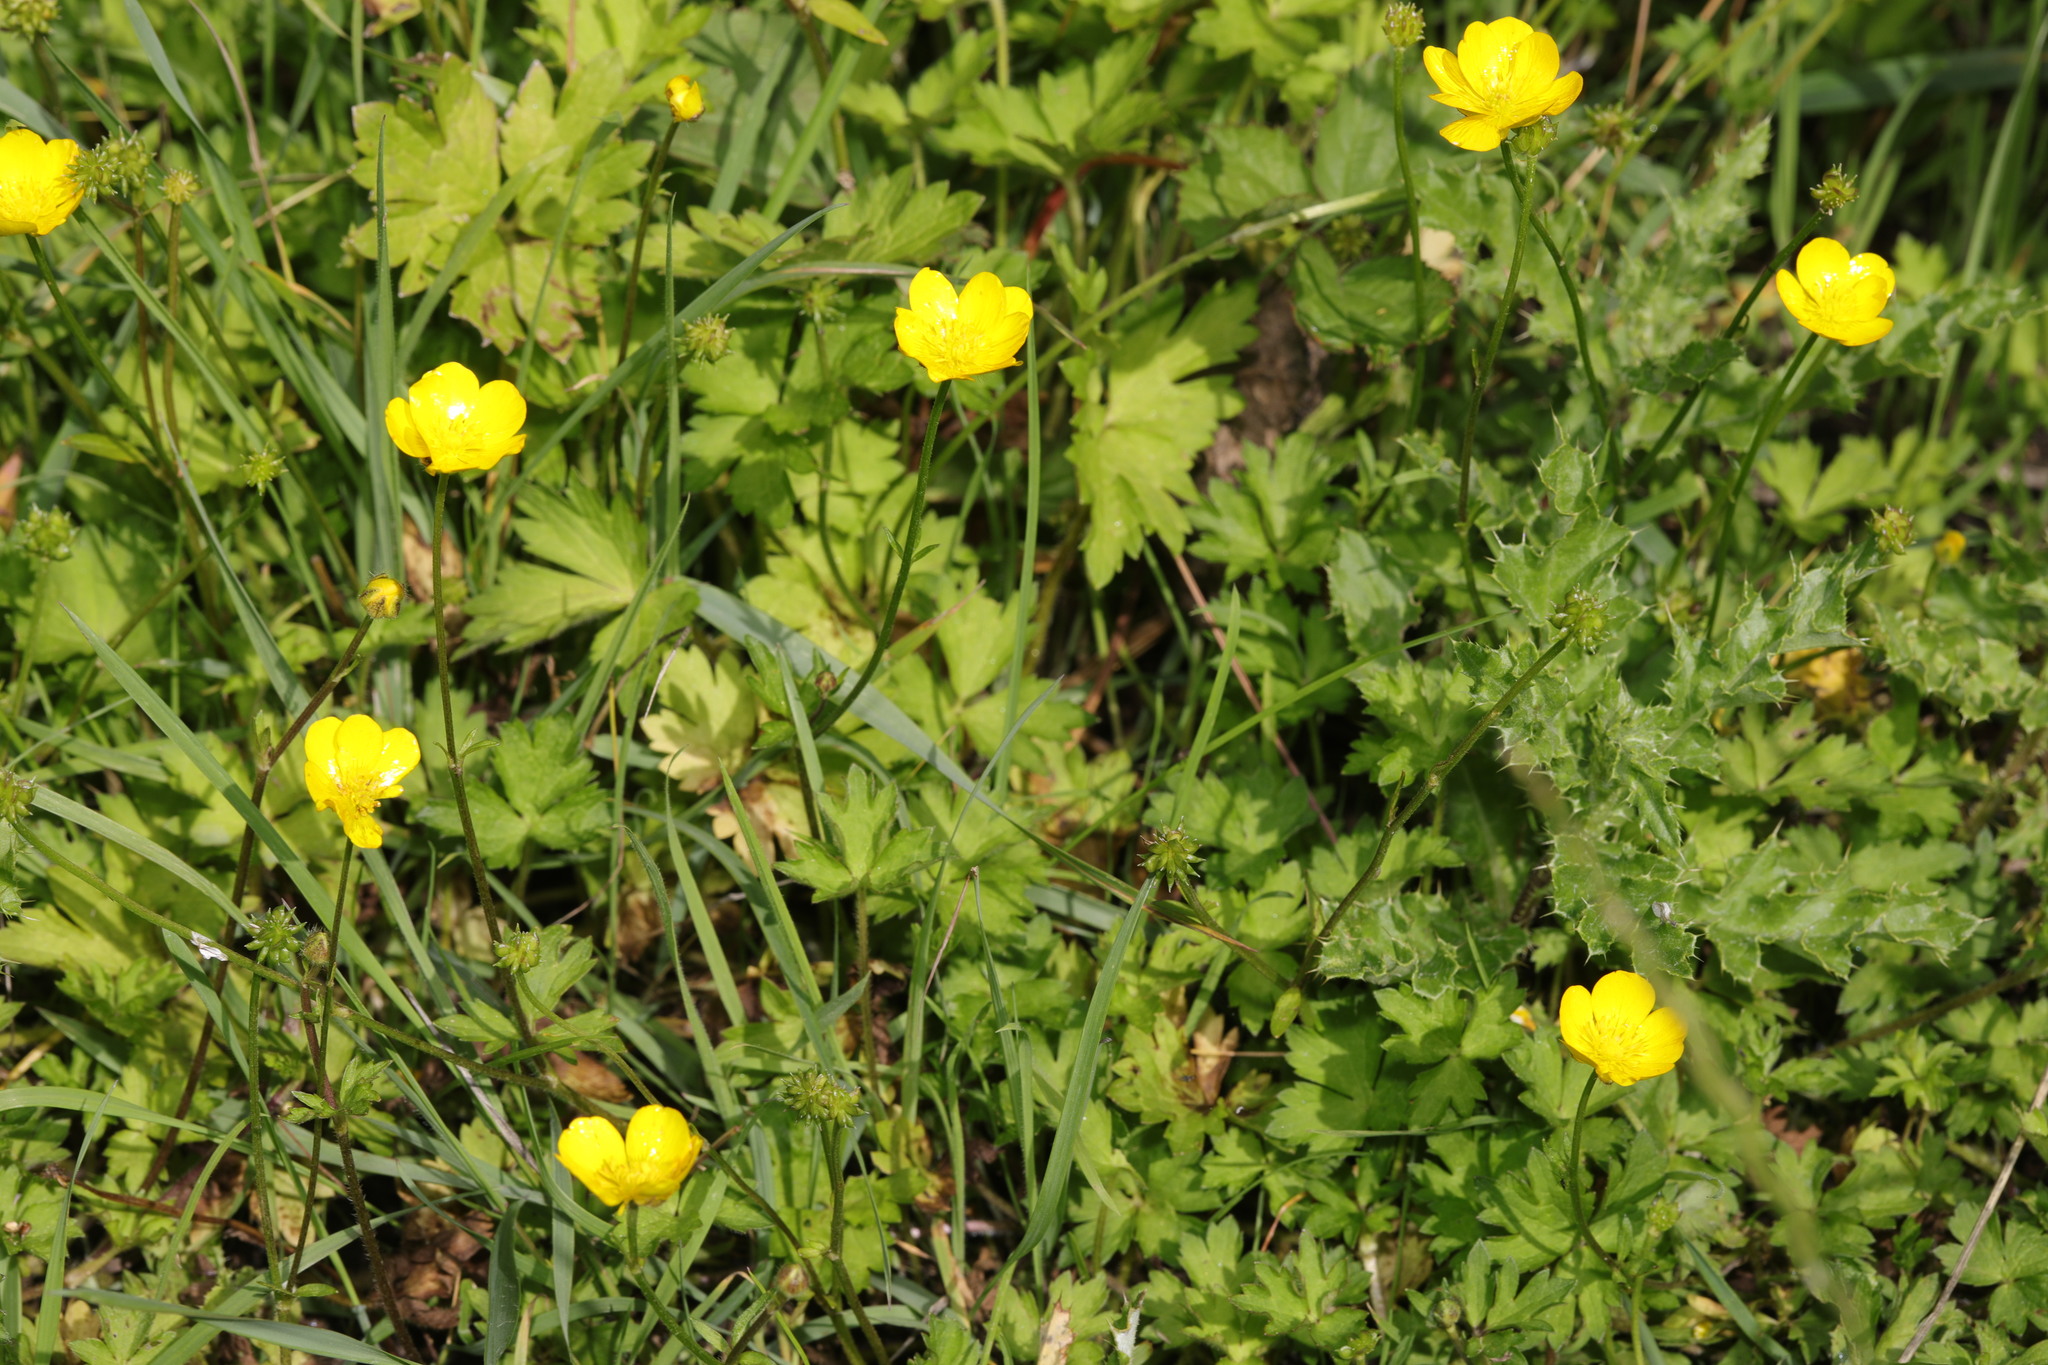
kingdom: Plantae
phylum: Tracheophyta
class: Magnoliopsida
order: Ranunculales
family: Ranunculaceae
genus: Ranunculus
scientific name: Ranunculus repens
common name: Creeping buttercup
